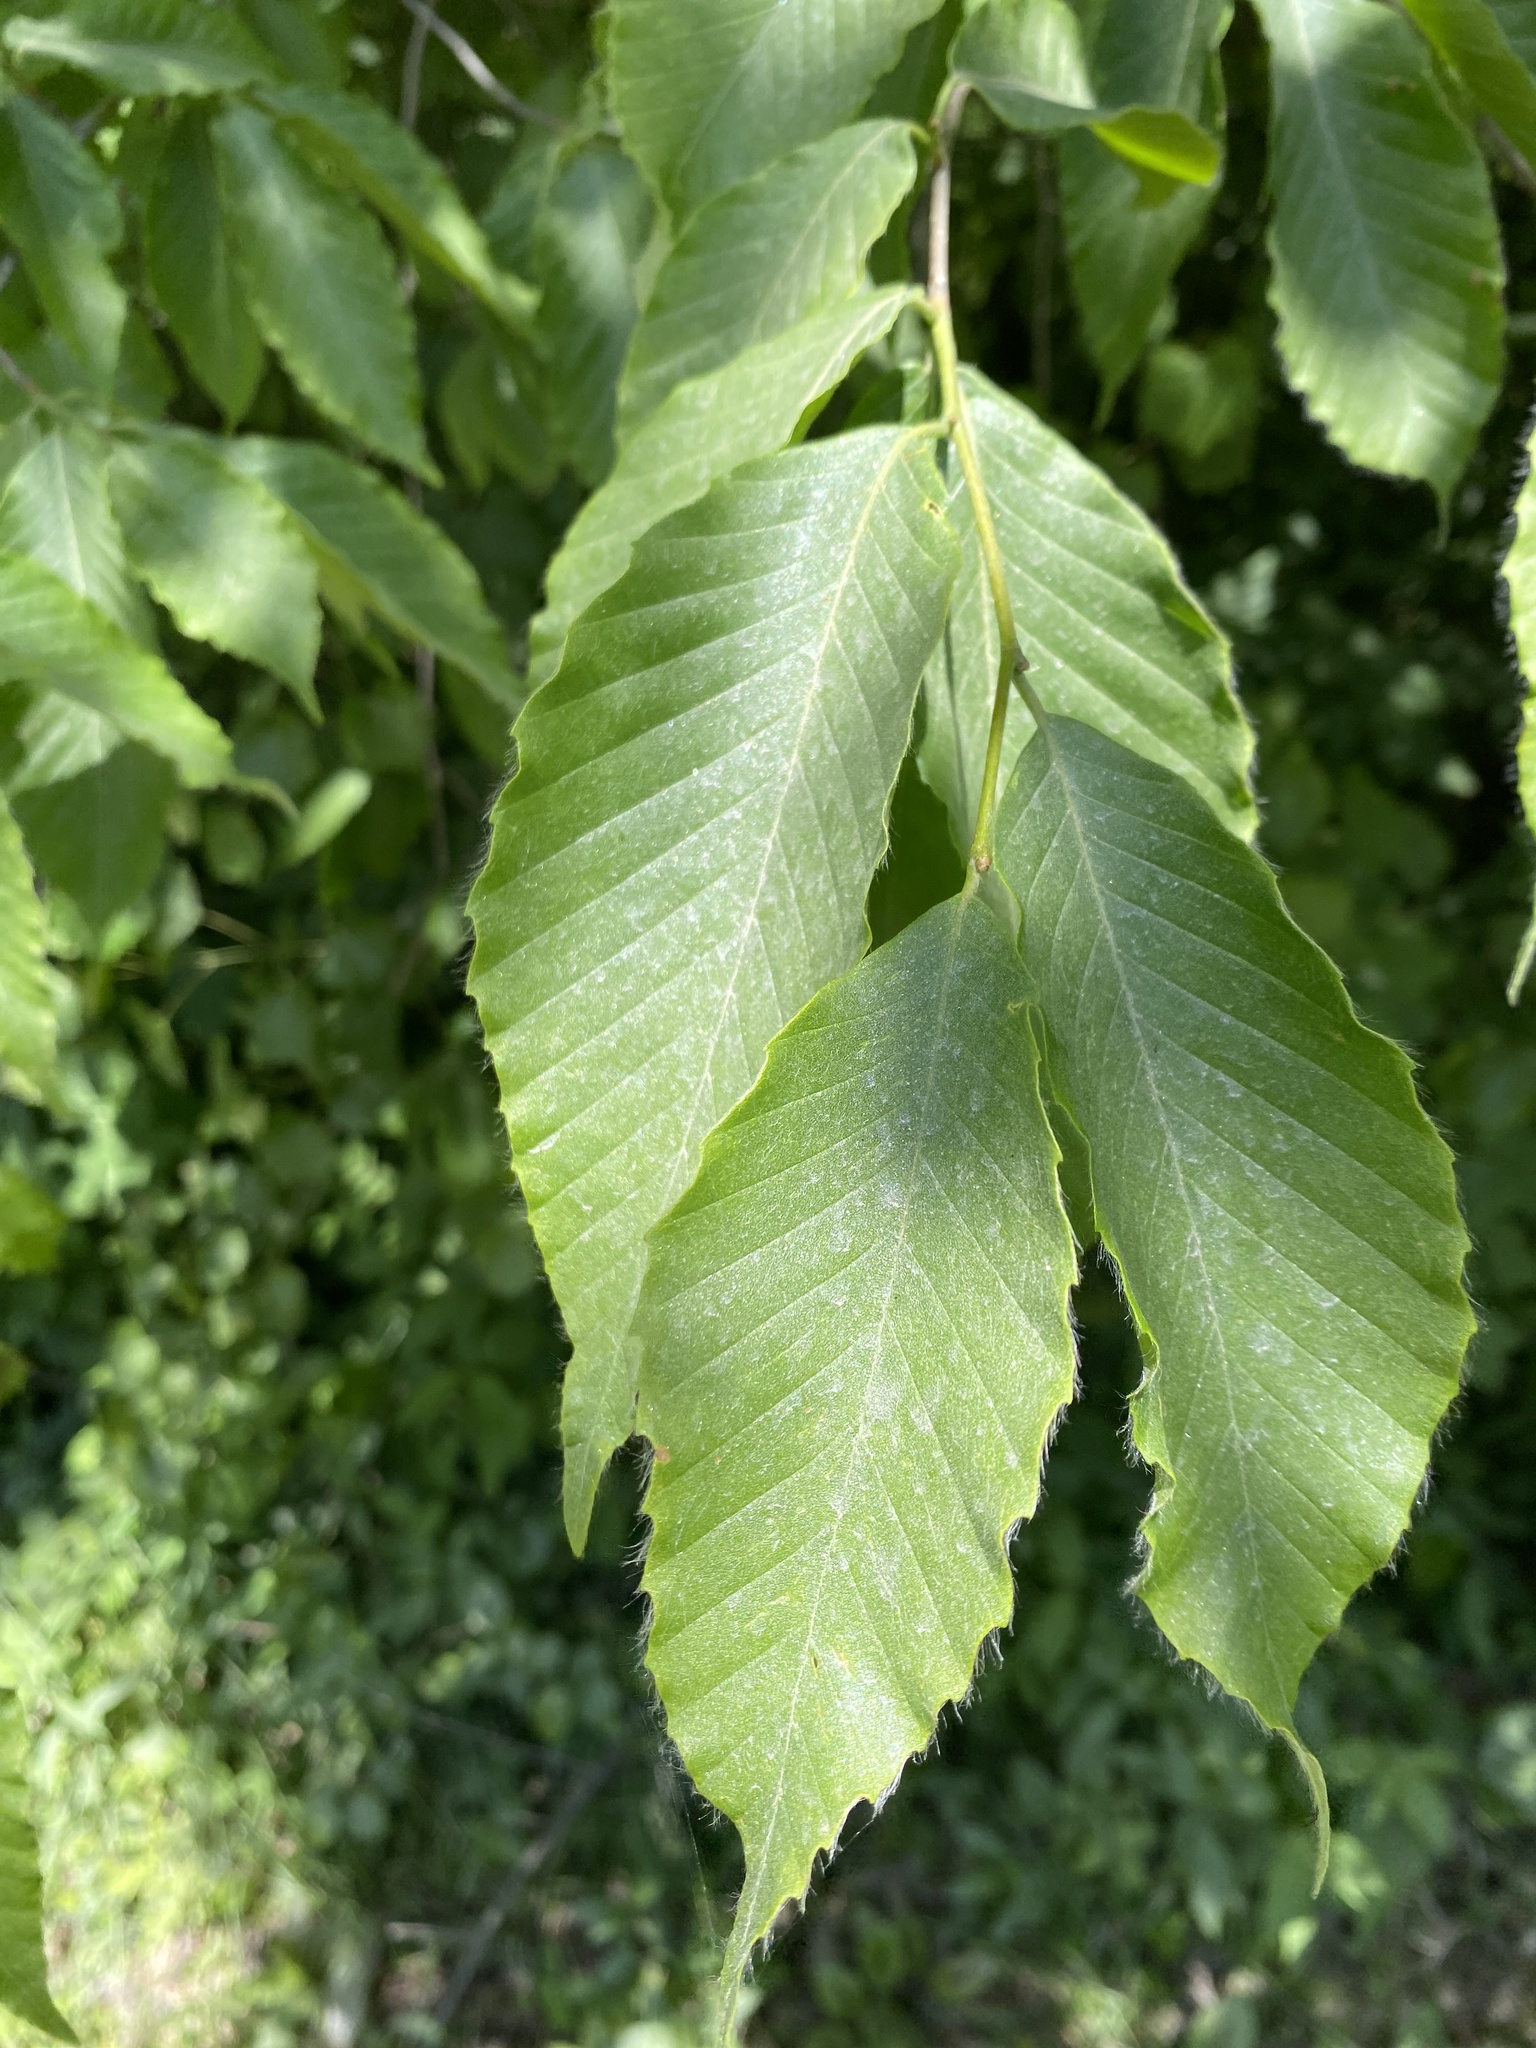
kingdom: Plantae
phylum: Tracheophyta
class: Magnoliopsida
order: Fagales
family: Fagaceae
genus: Fagus
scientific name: Fagus grandifolia
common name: American beech
